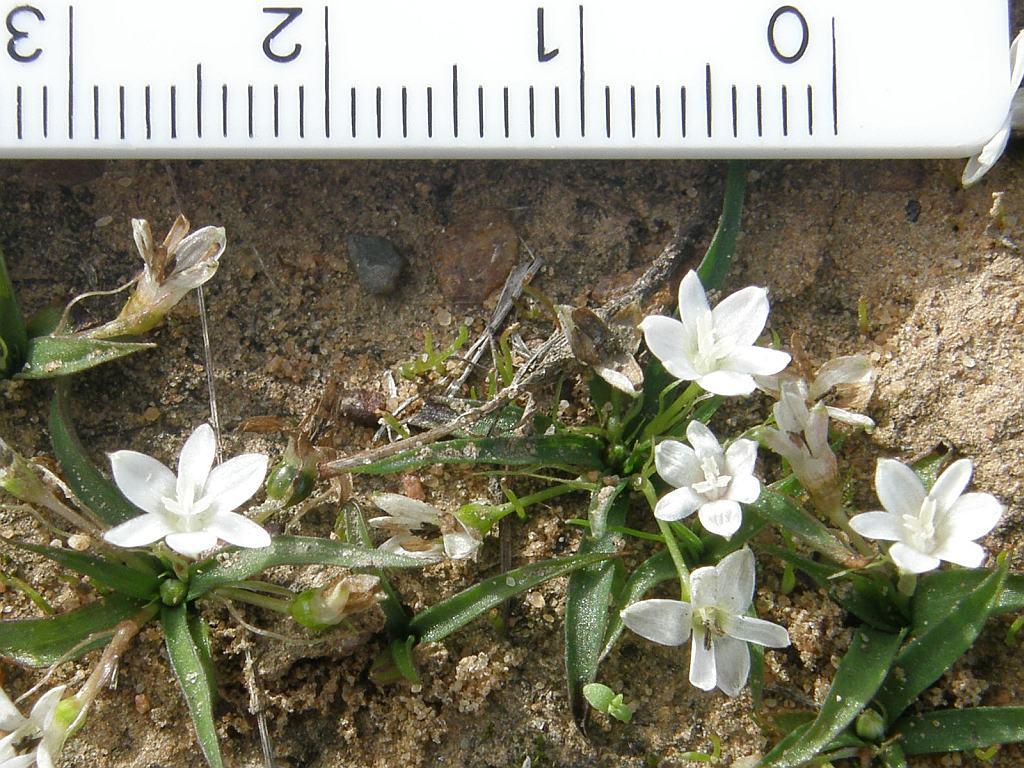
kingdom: Plantae
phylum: Tracheophyta
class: Liliopsida
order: Asparagales
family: Hypoxidaceae
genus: Pauridia
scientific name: Pauridia minuta
